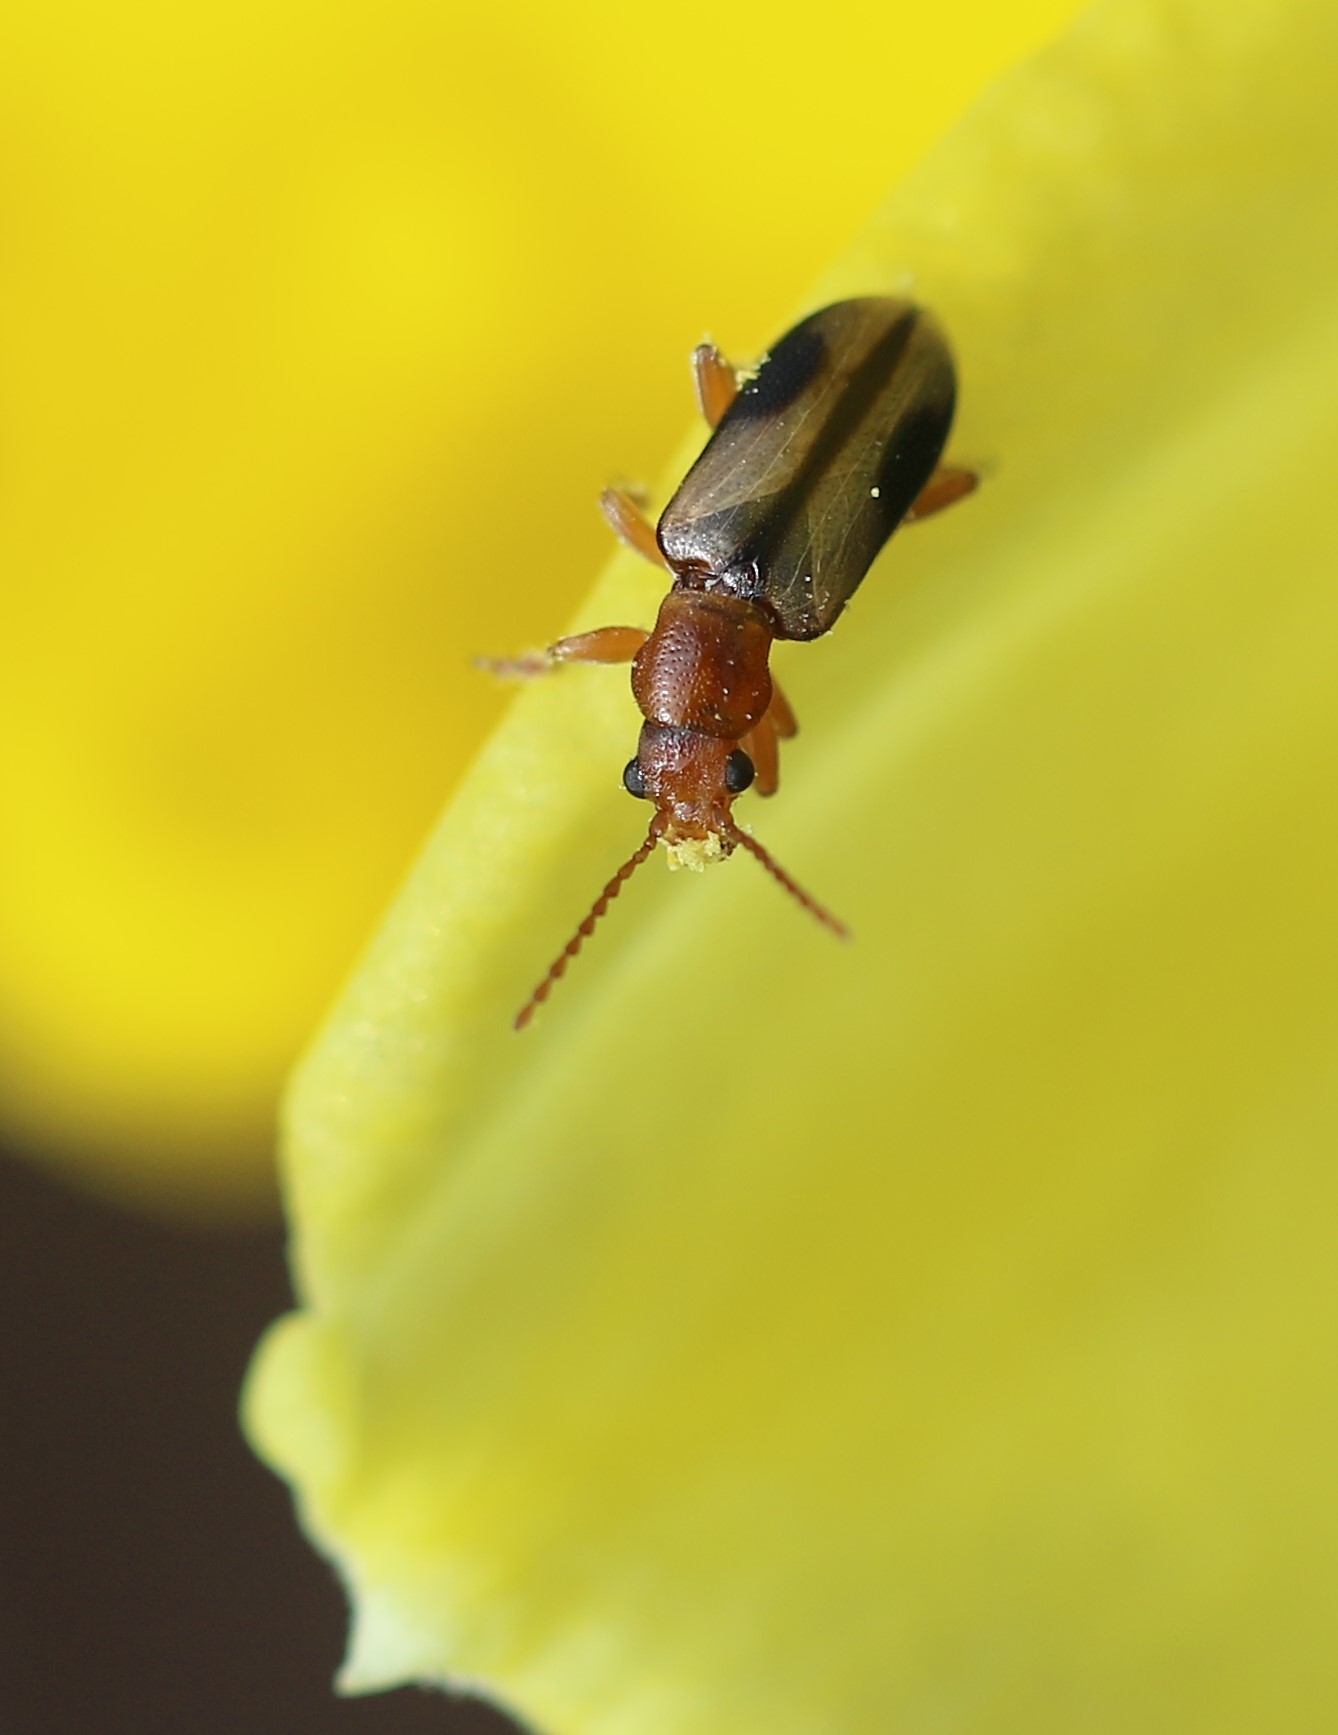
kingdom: Animalia
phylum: Arthropoda
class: Insecta
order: Coleoptera
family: Orsodacnidae
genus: Orsodacne
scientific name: Orsodacne atra
